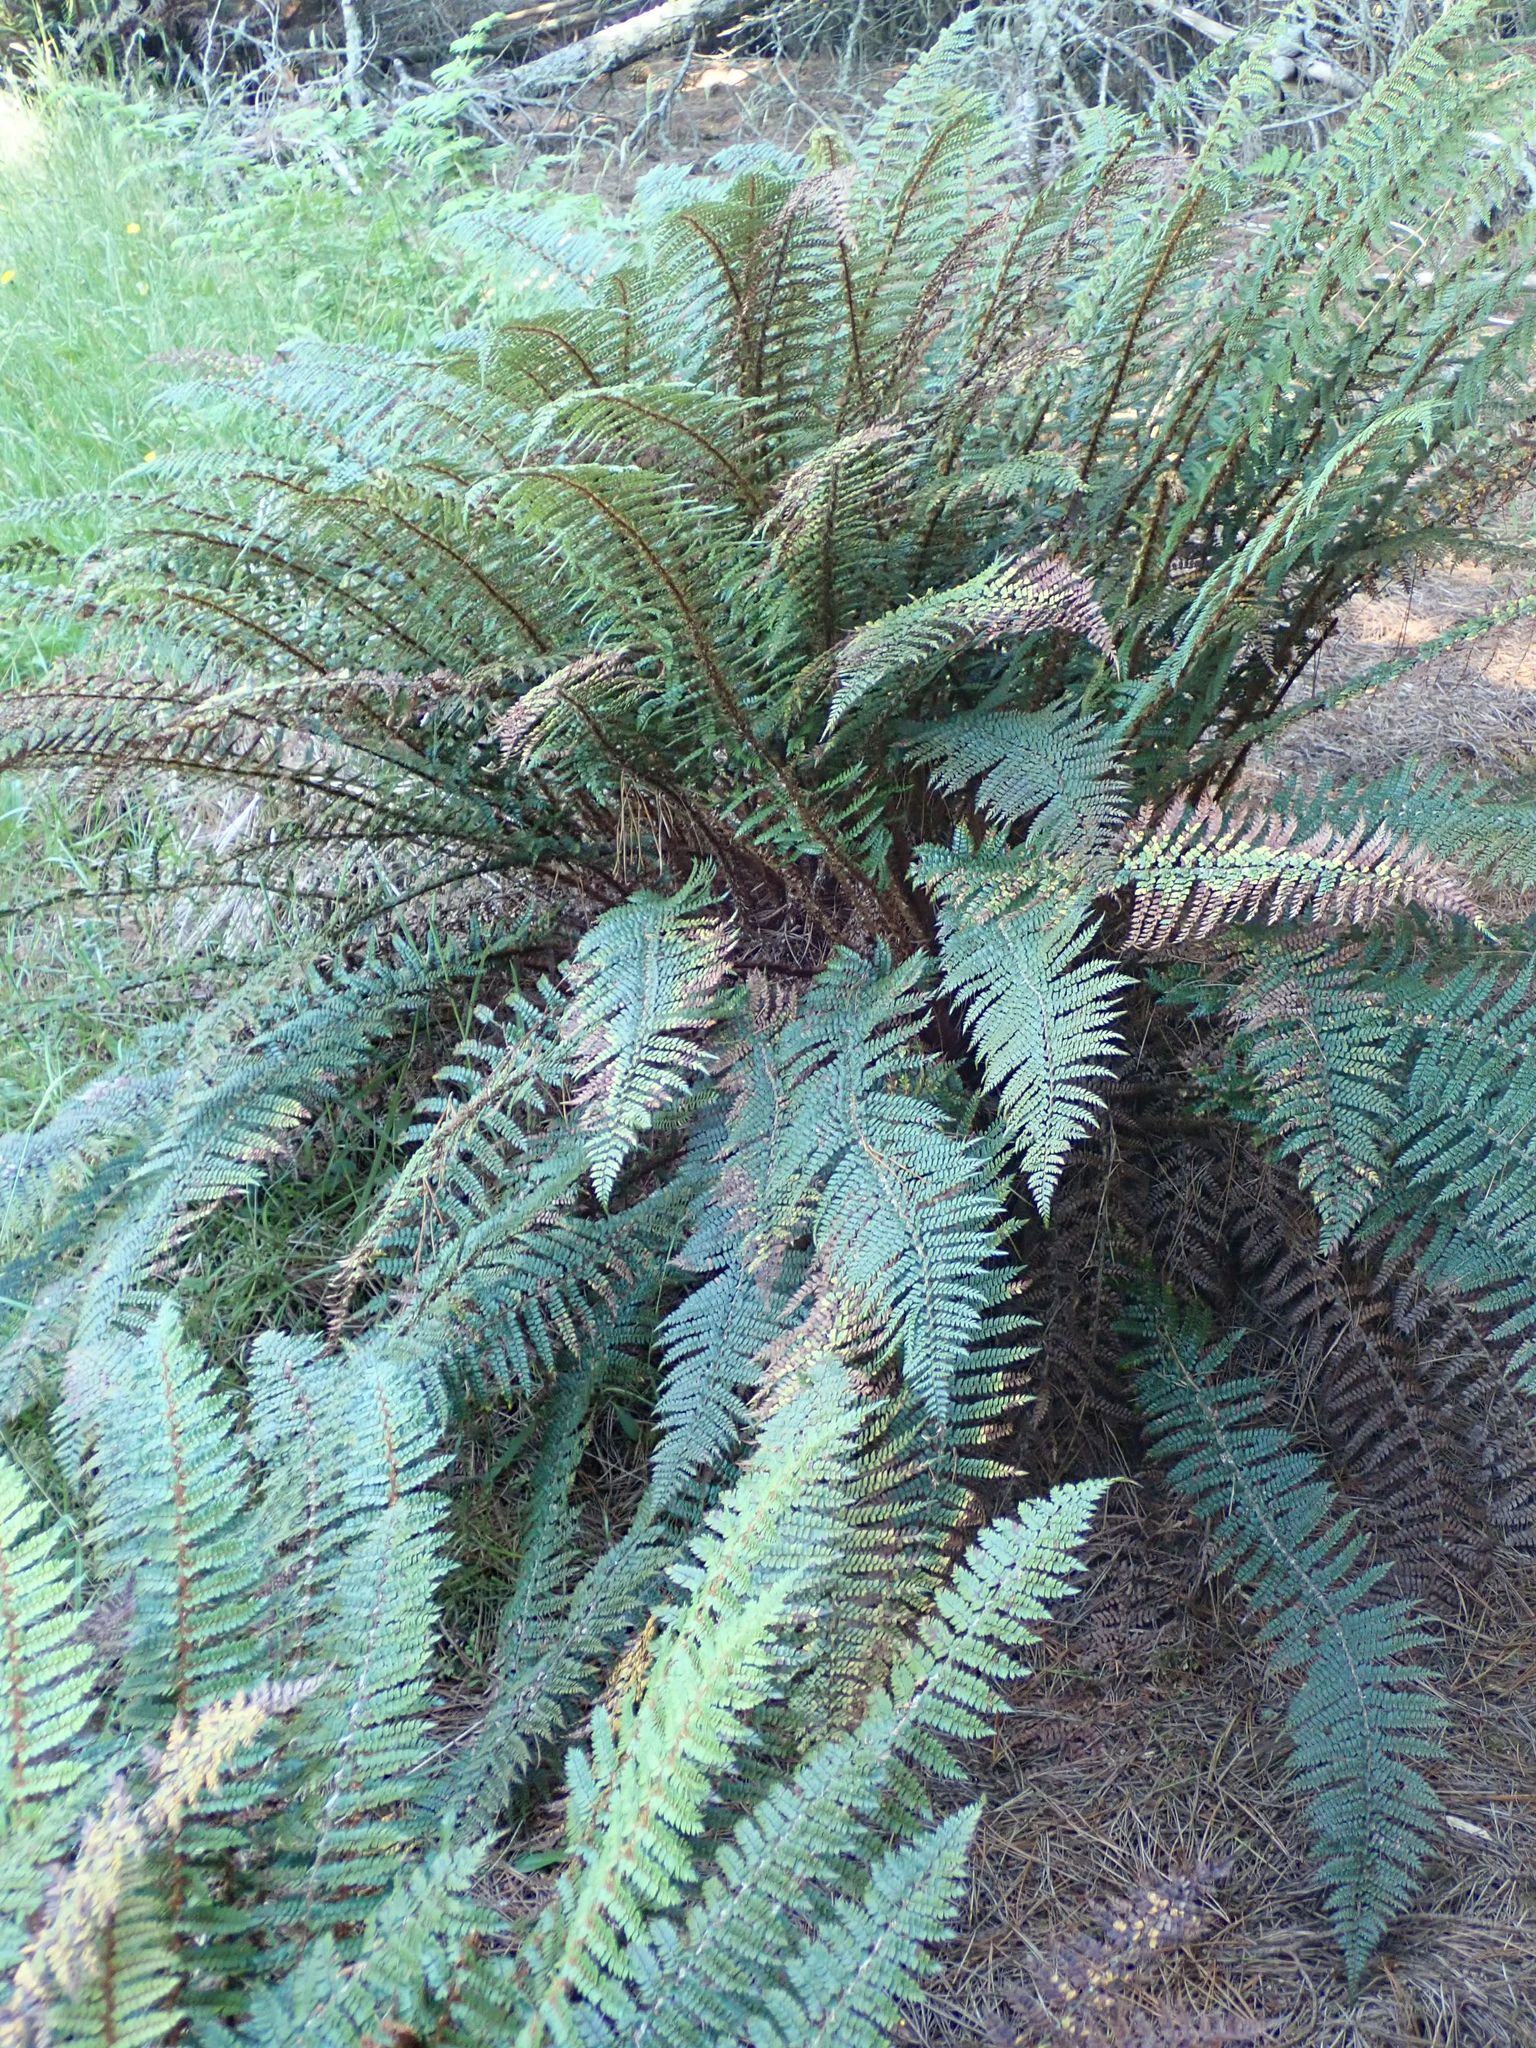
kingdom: Plantae
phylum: Tracheophyta
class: Polypodiopsida
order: Polypodiales
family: Dryopteridaceae
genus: Polystichum
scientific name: Polystichum vestitum
